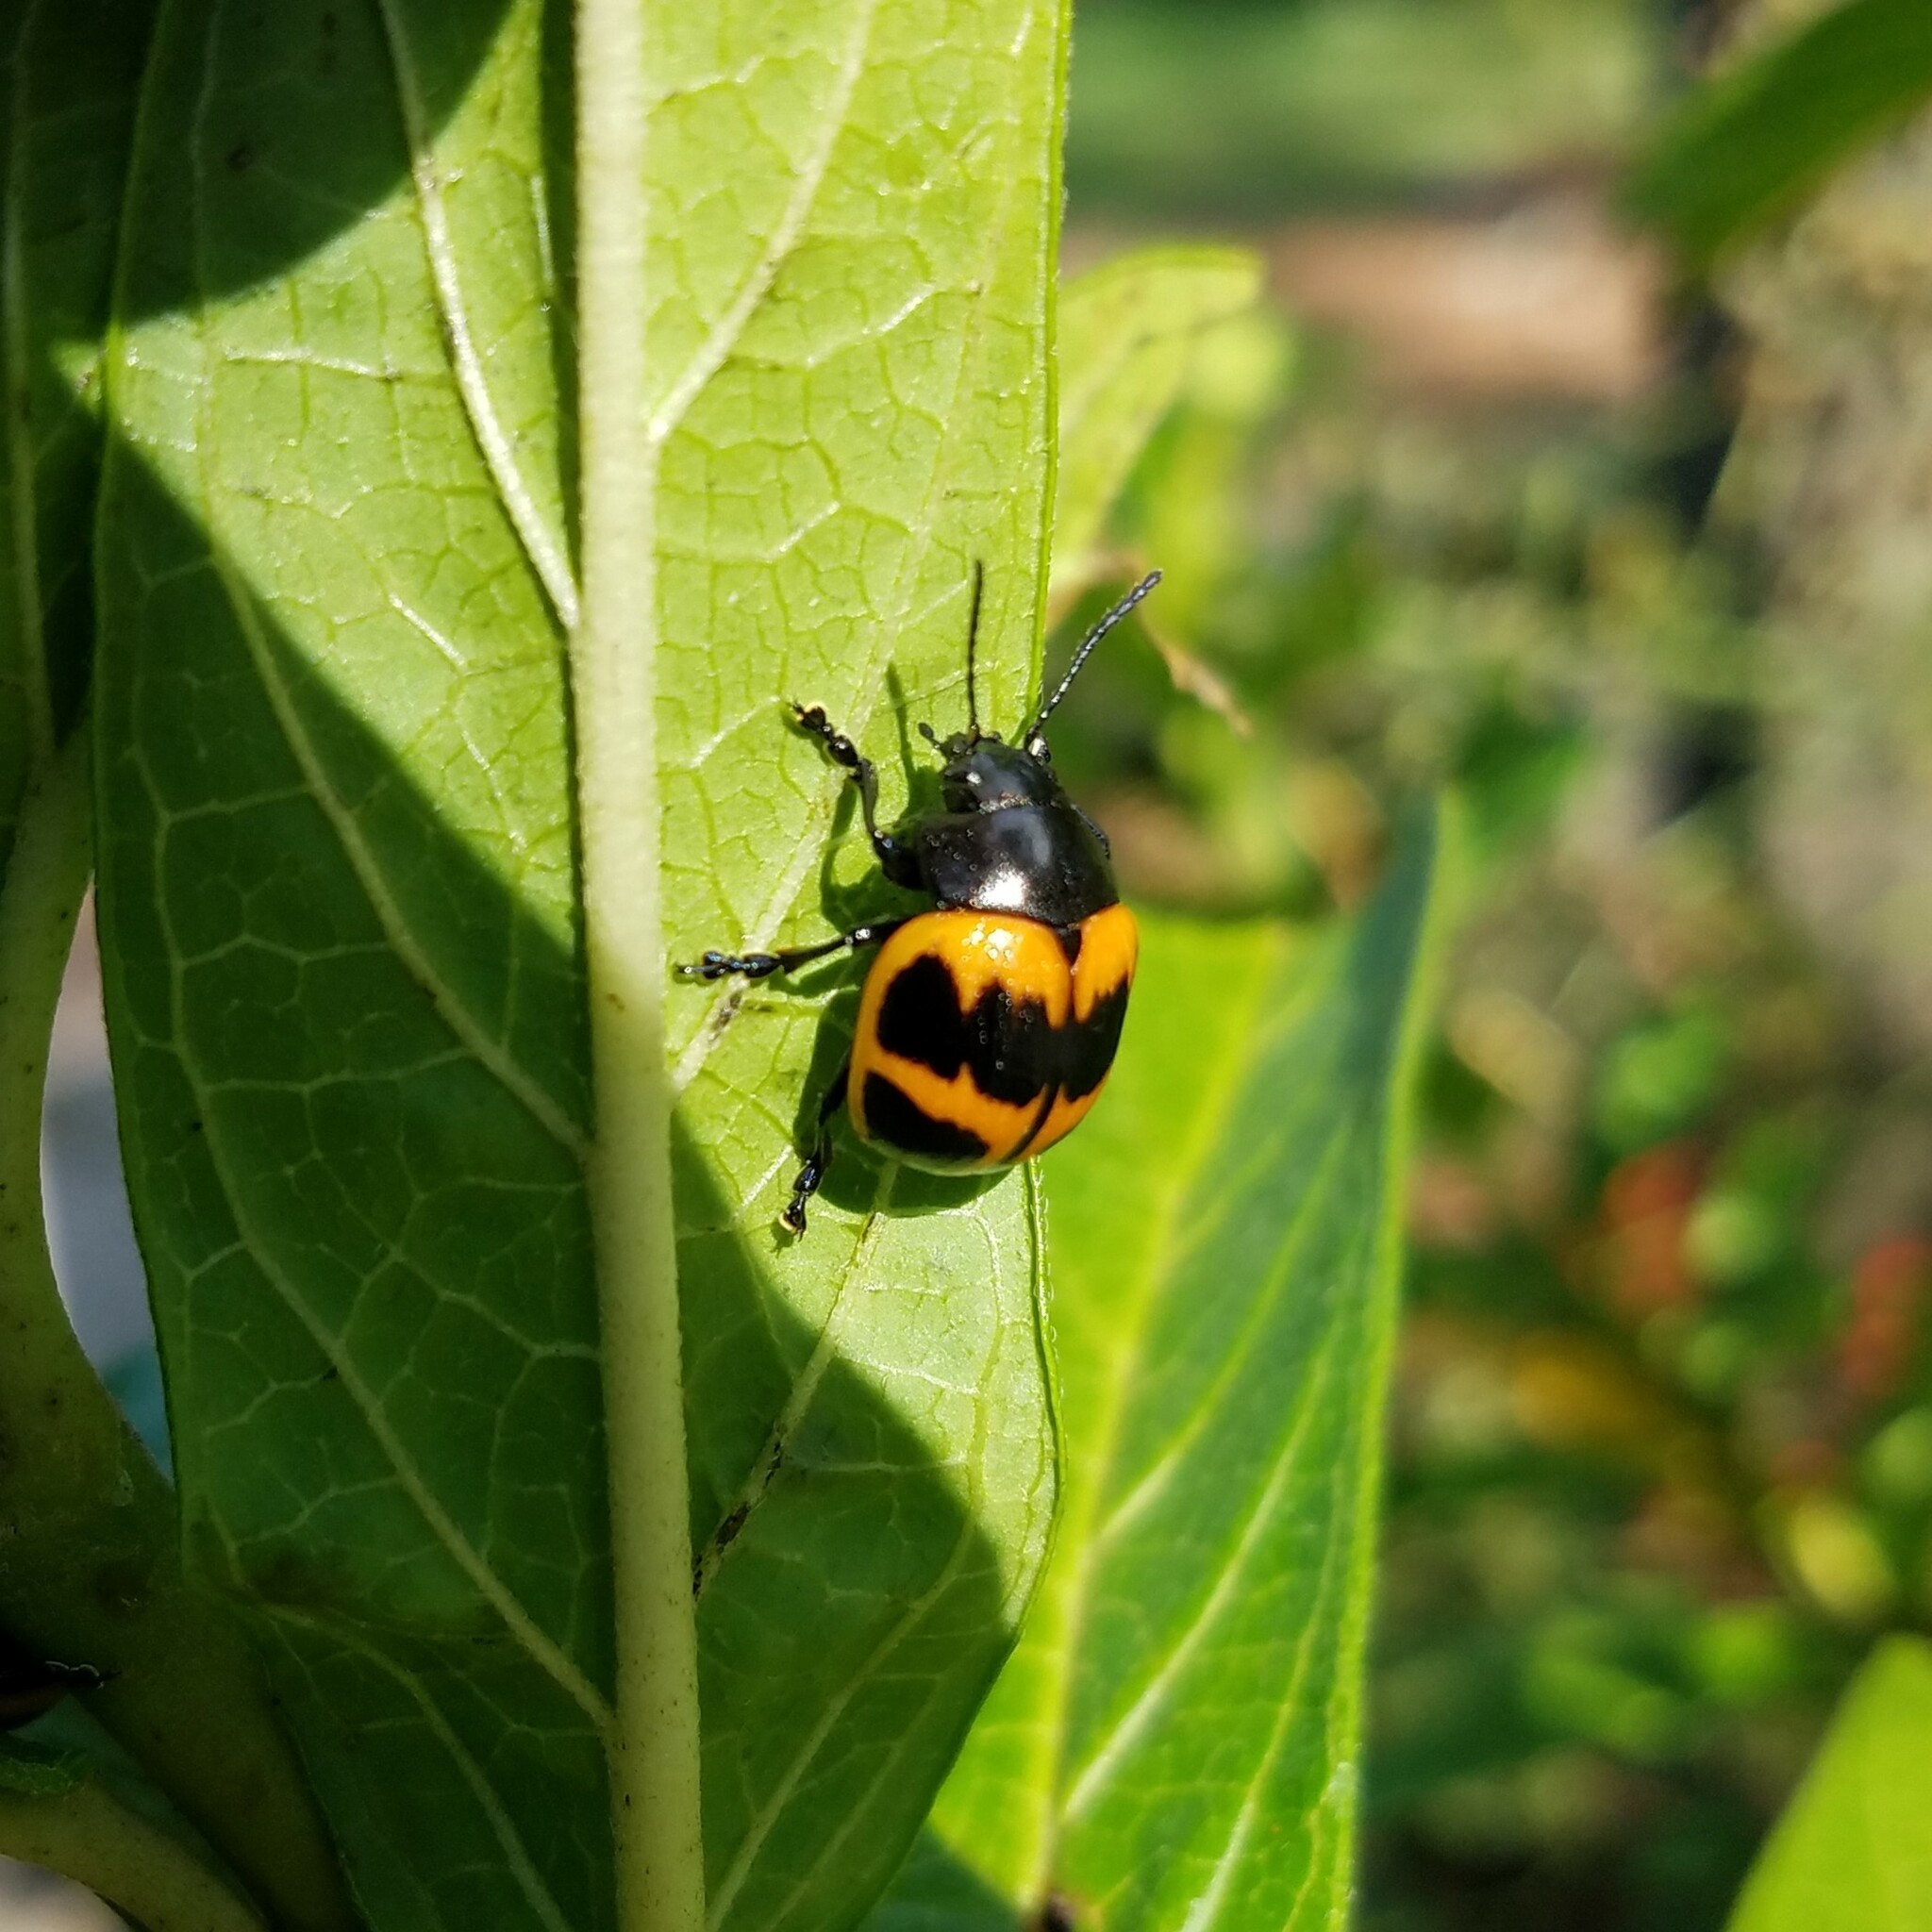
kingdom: Animalia
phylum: Arthropoda
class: Insecta
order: Coleoptera
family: Chrysomelidae
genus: Labidomera
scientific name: Labidomera clivicollis
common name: Swamp milkweed leaf beetle
